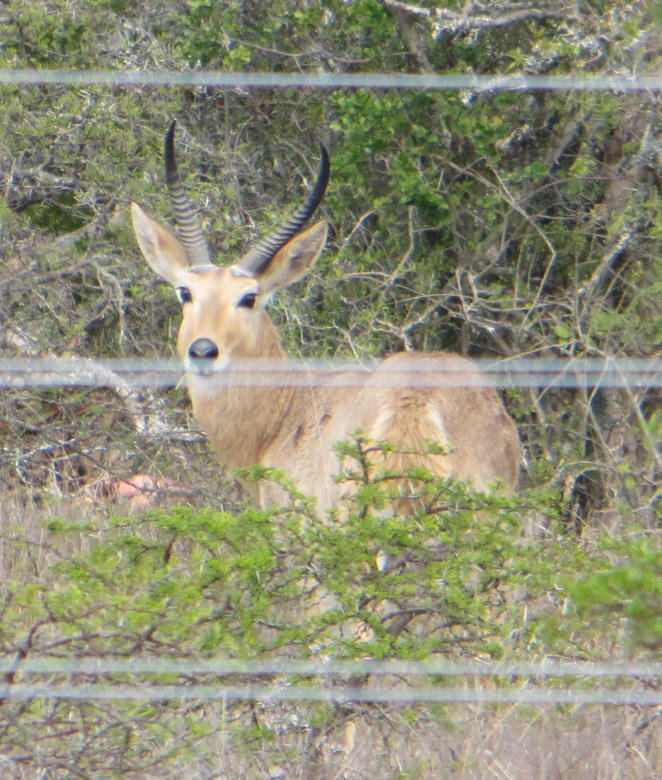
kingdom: Animalia
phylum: Chordata
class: Mammalia
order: Artiodactyla
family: Bovidae
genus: Redunca
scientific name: Redunca arundinum
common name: Southern reedbuck
